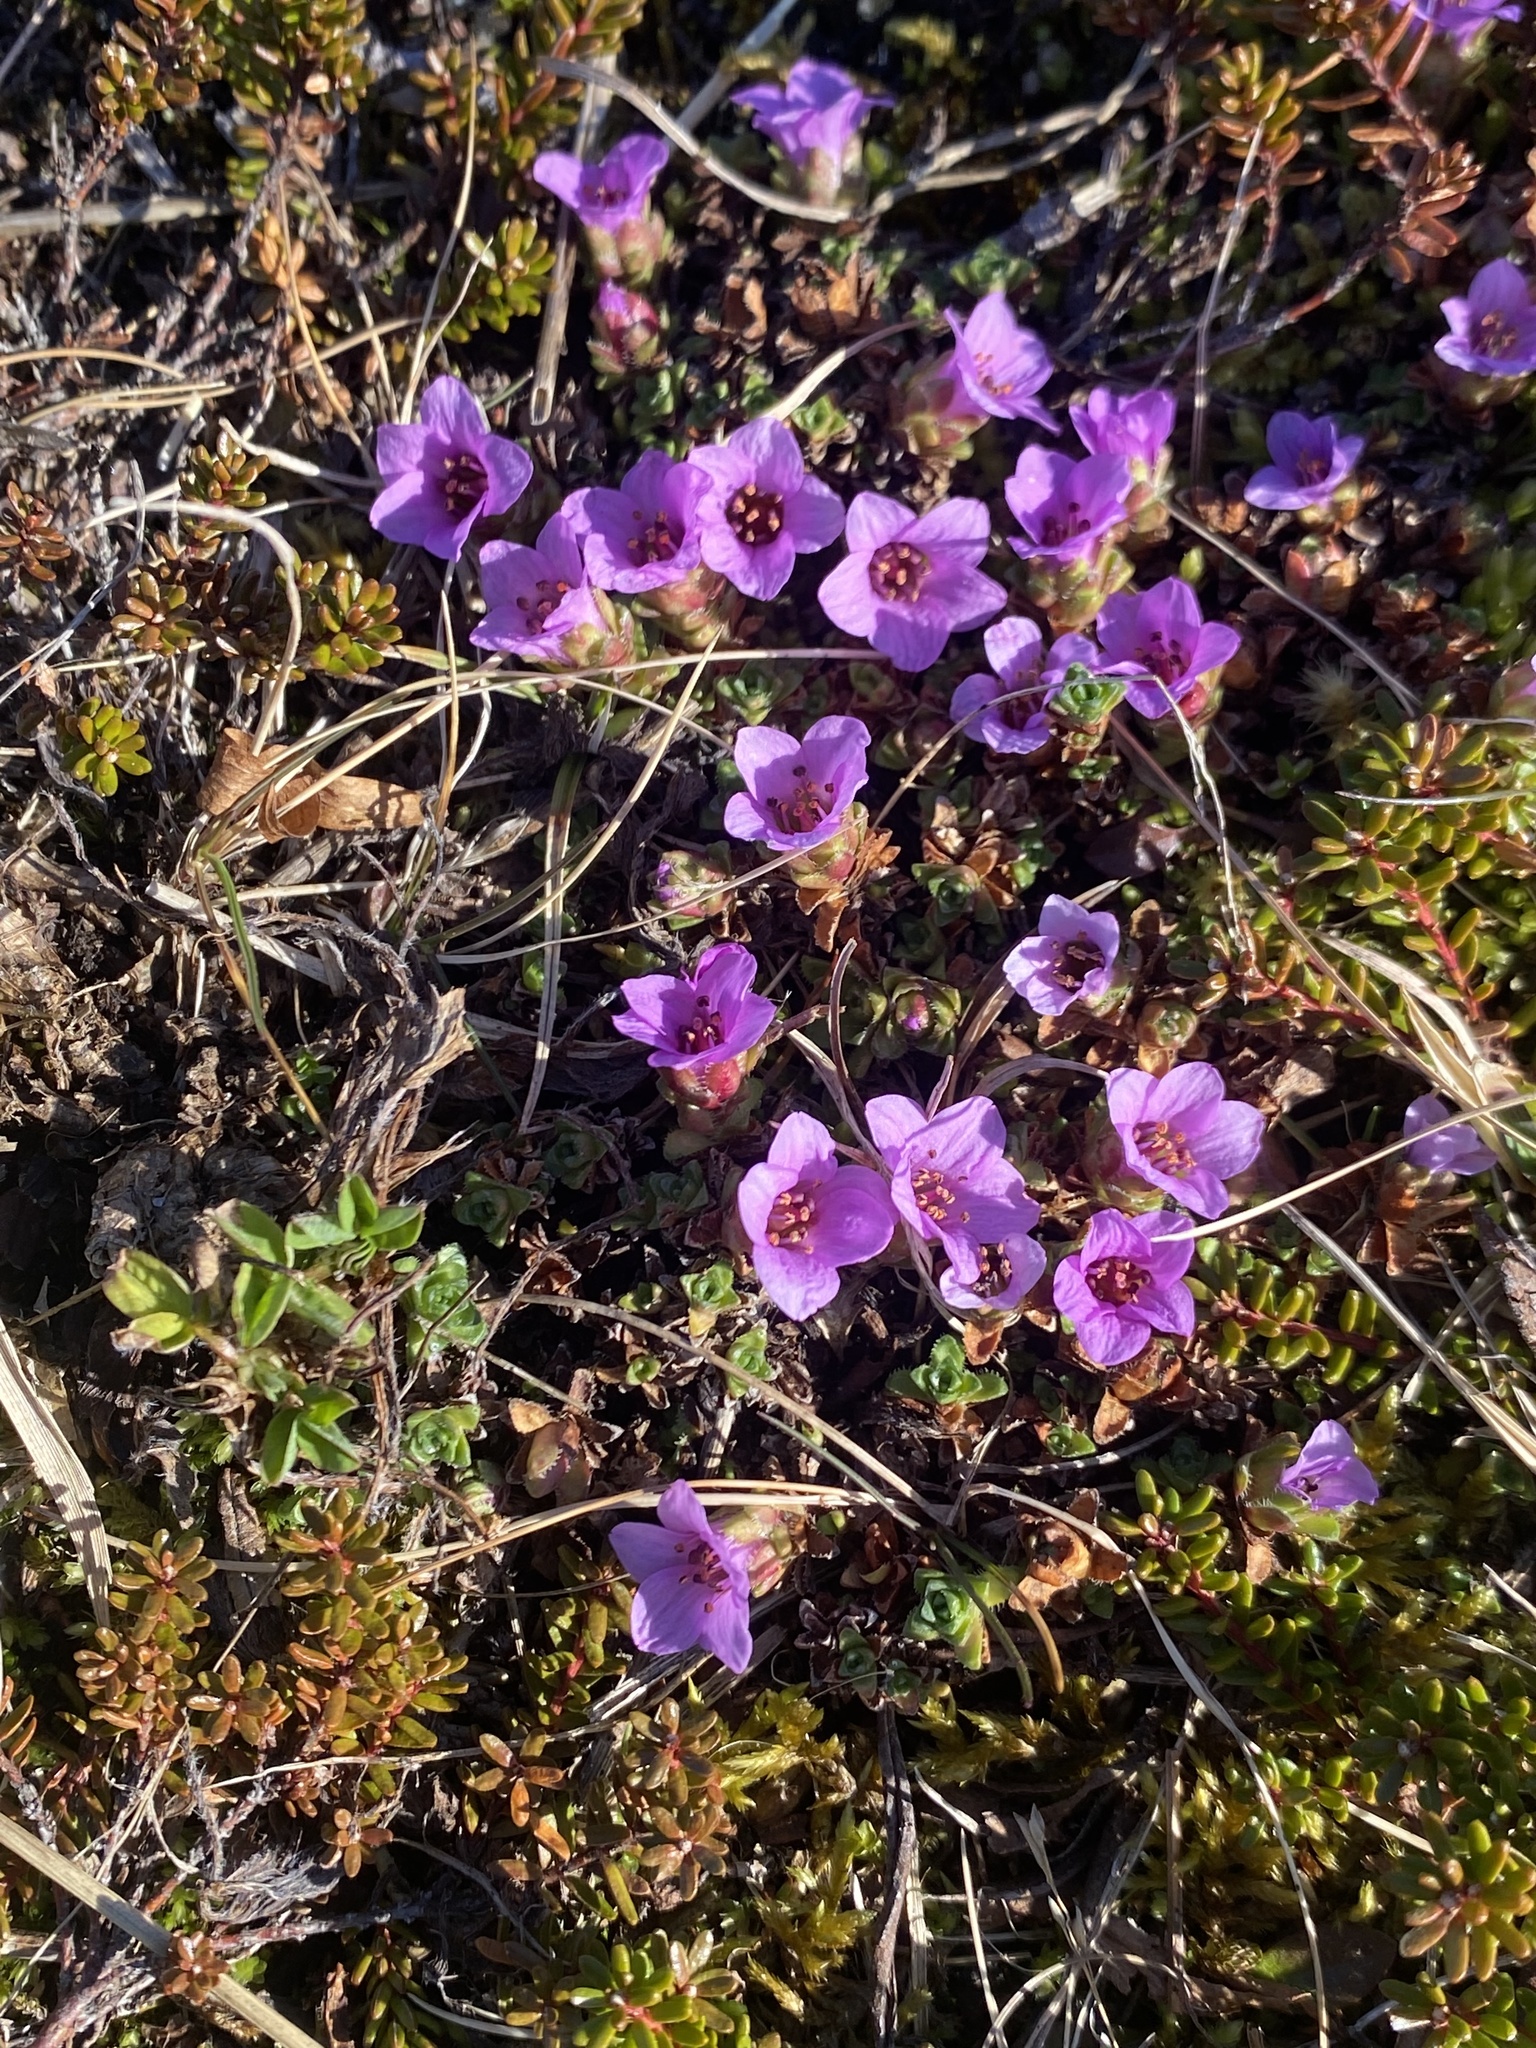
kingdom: Plantae
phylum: Tracheophyta
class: Magnoliopsida
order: Saxifragales
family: Saxifragaceae
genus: Saxifraga
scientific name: Saxifraga oppositifolia
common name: Purple saxifrage
